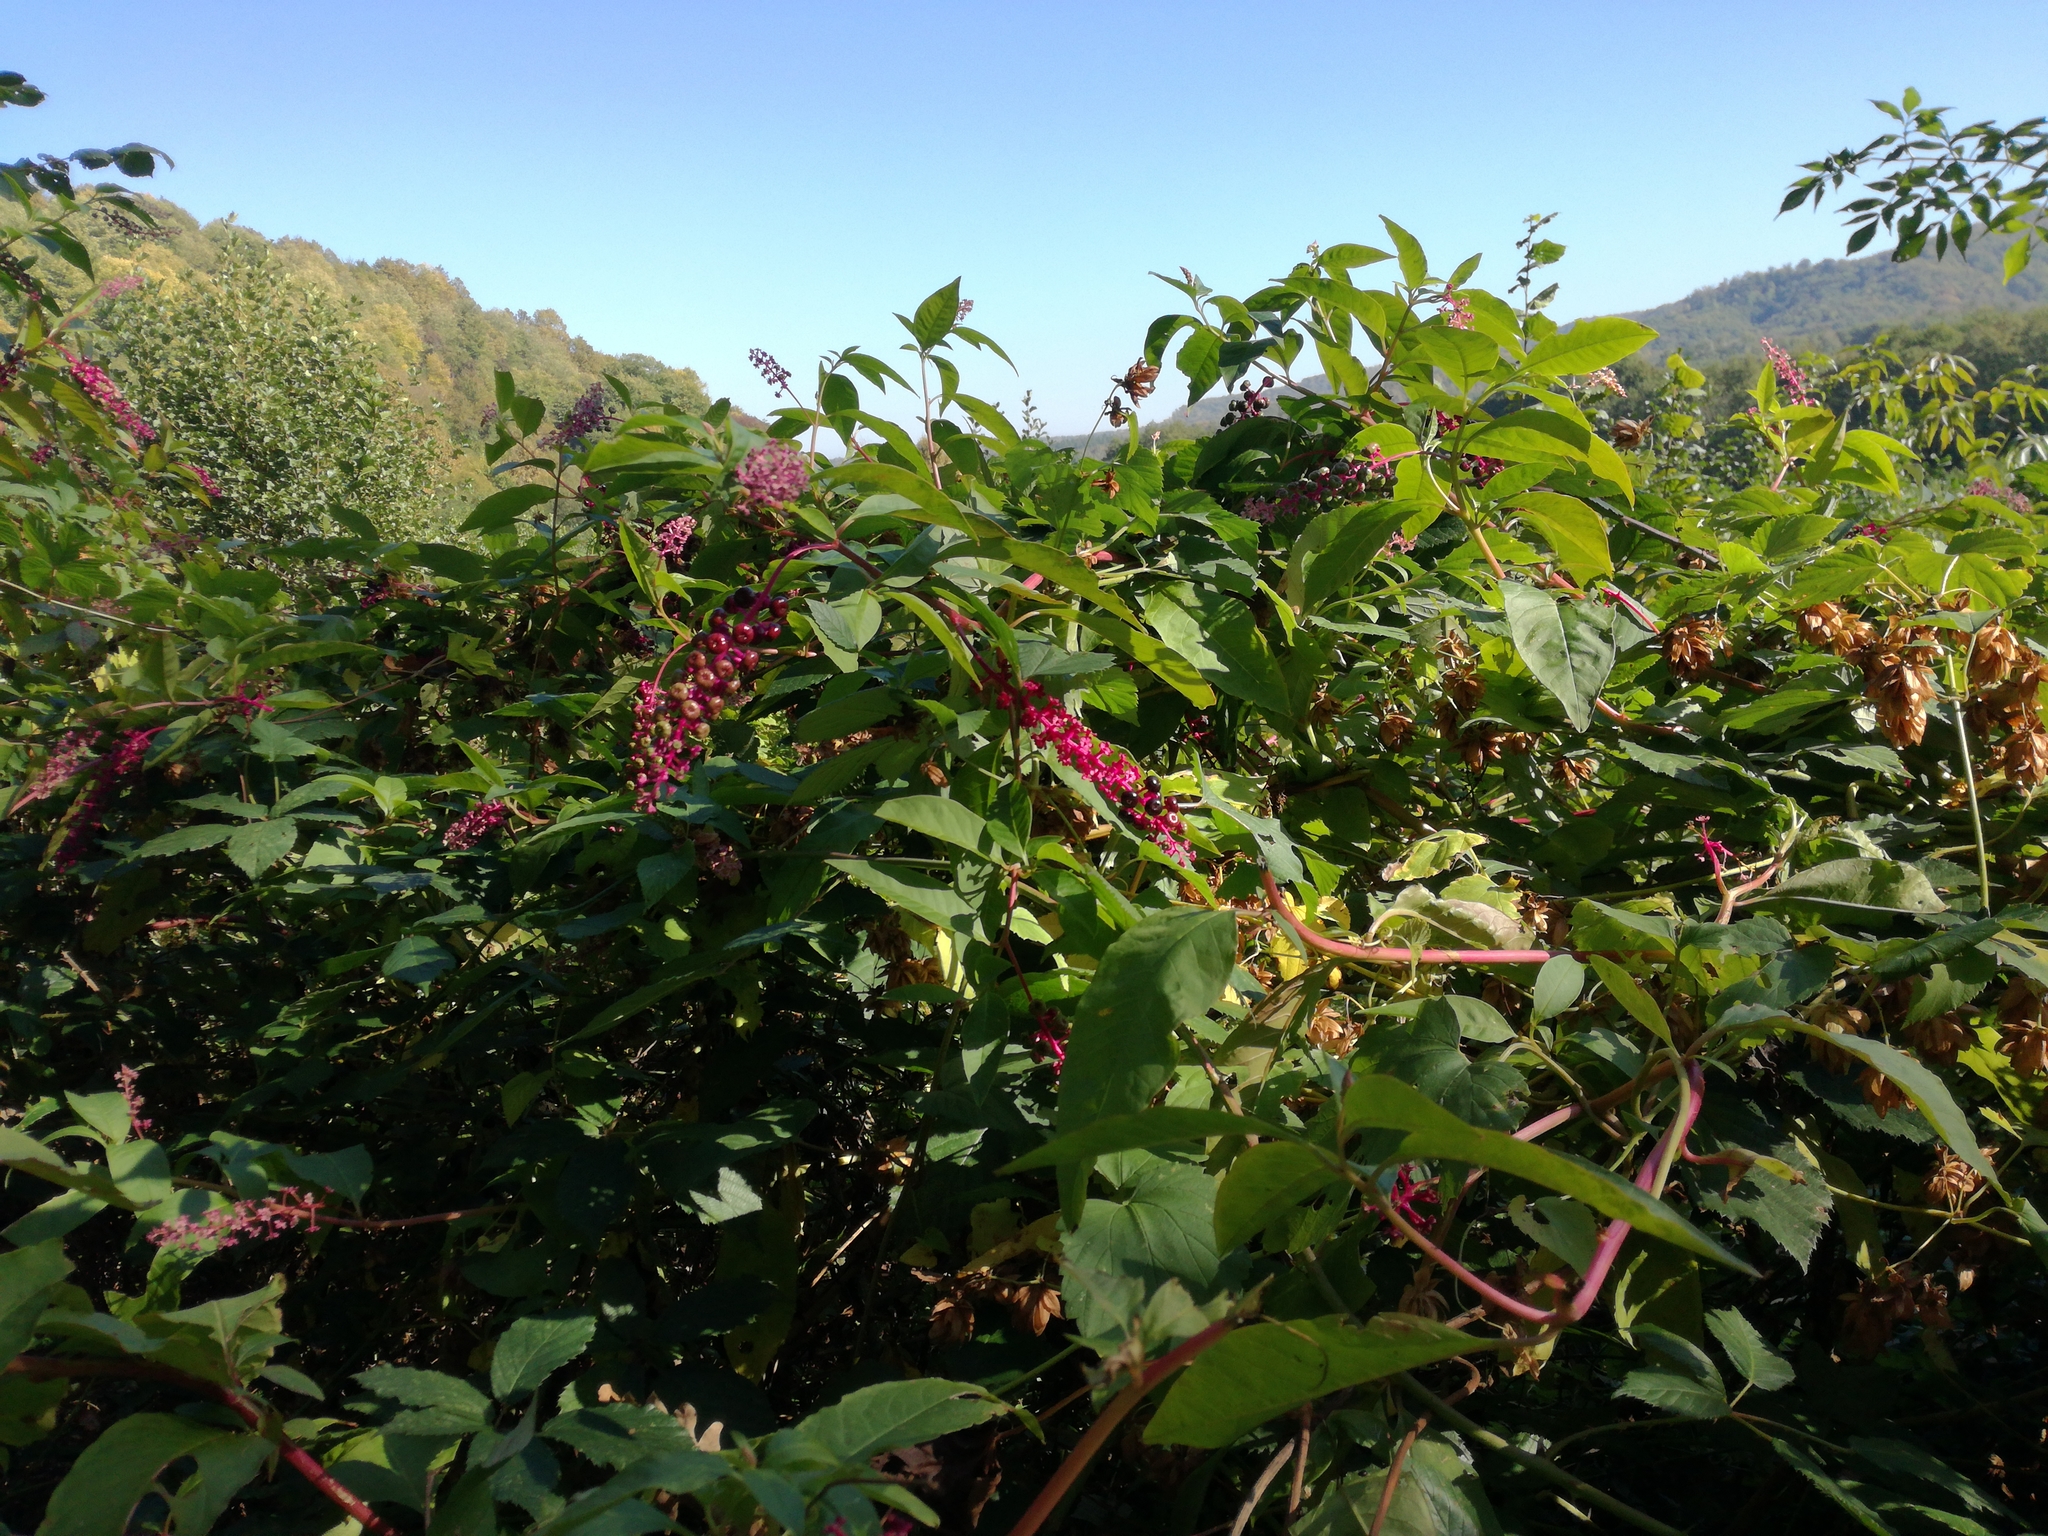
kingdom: Plantae
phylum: Tracheophyta
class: Magnoliopsida
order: Caryophyllales
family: Phytolaccaceae
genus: Phytolacca
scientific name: Phytolacca americana
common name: American pokeweed
